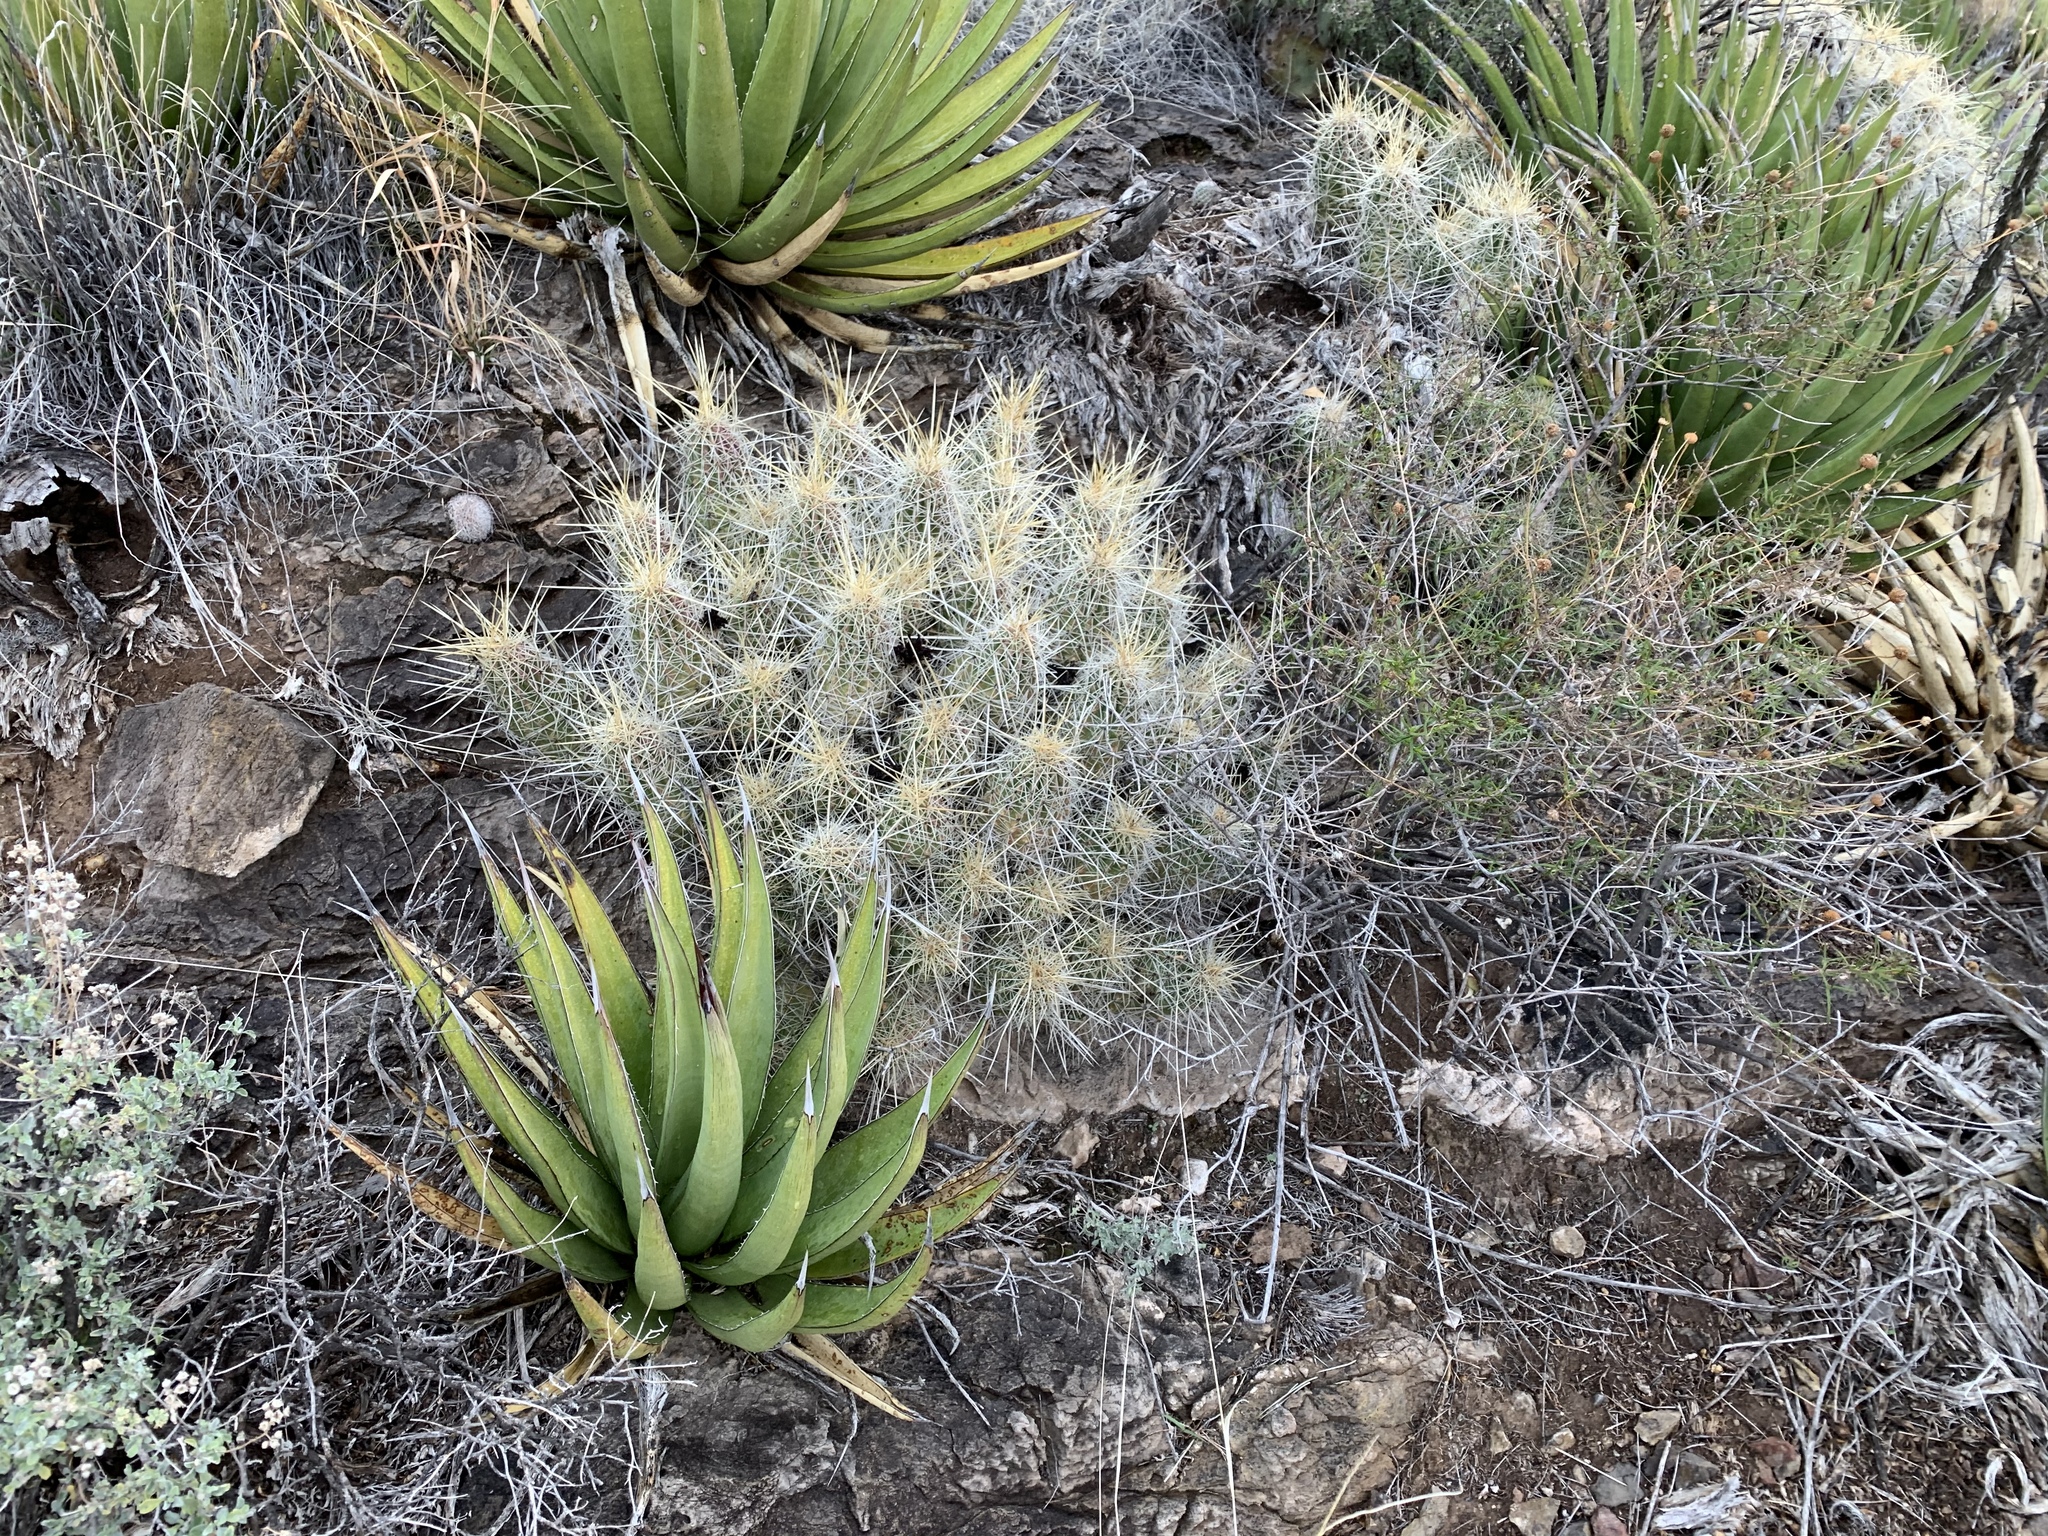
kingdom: Plantae
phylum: Tracheophyta
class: Magnoliopsida
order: Caryophyllales
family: Cactaceae
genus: Echinocereus
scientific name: Echinocereus stramineus
